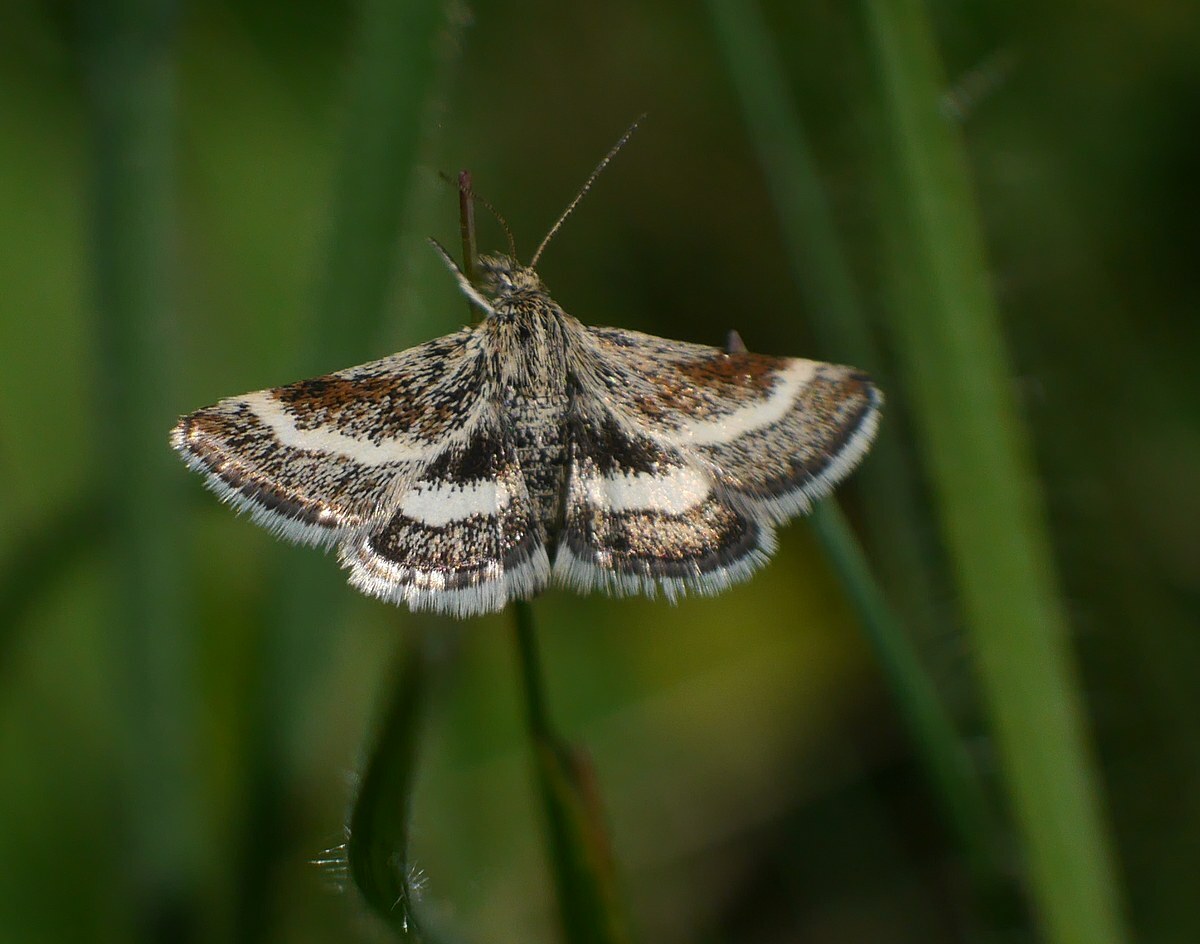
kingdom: Animalia
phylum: Arthropoda
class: Insecta
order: Lepidoptera
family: Crambidae
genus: Atralata
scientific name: Atralata albofascialis
